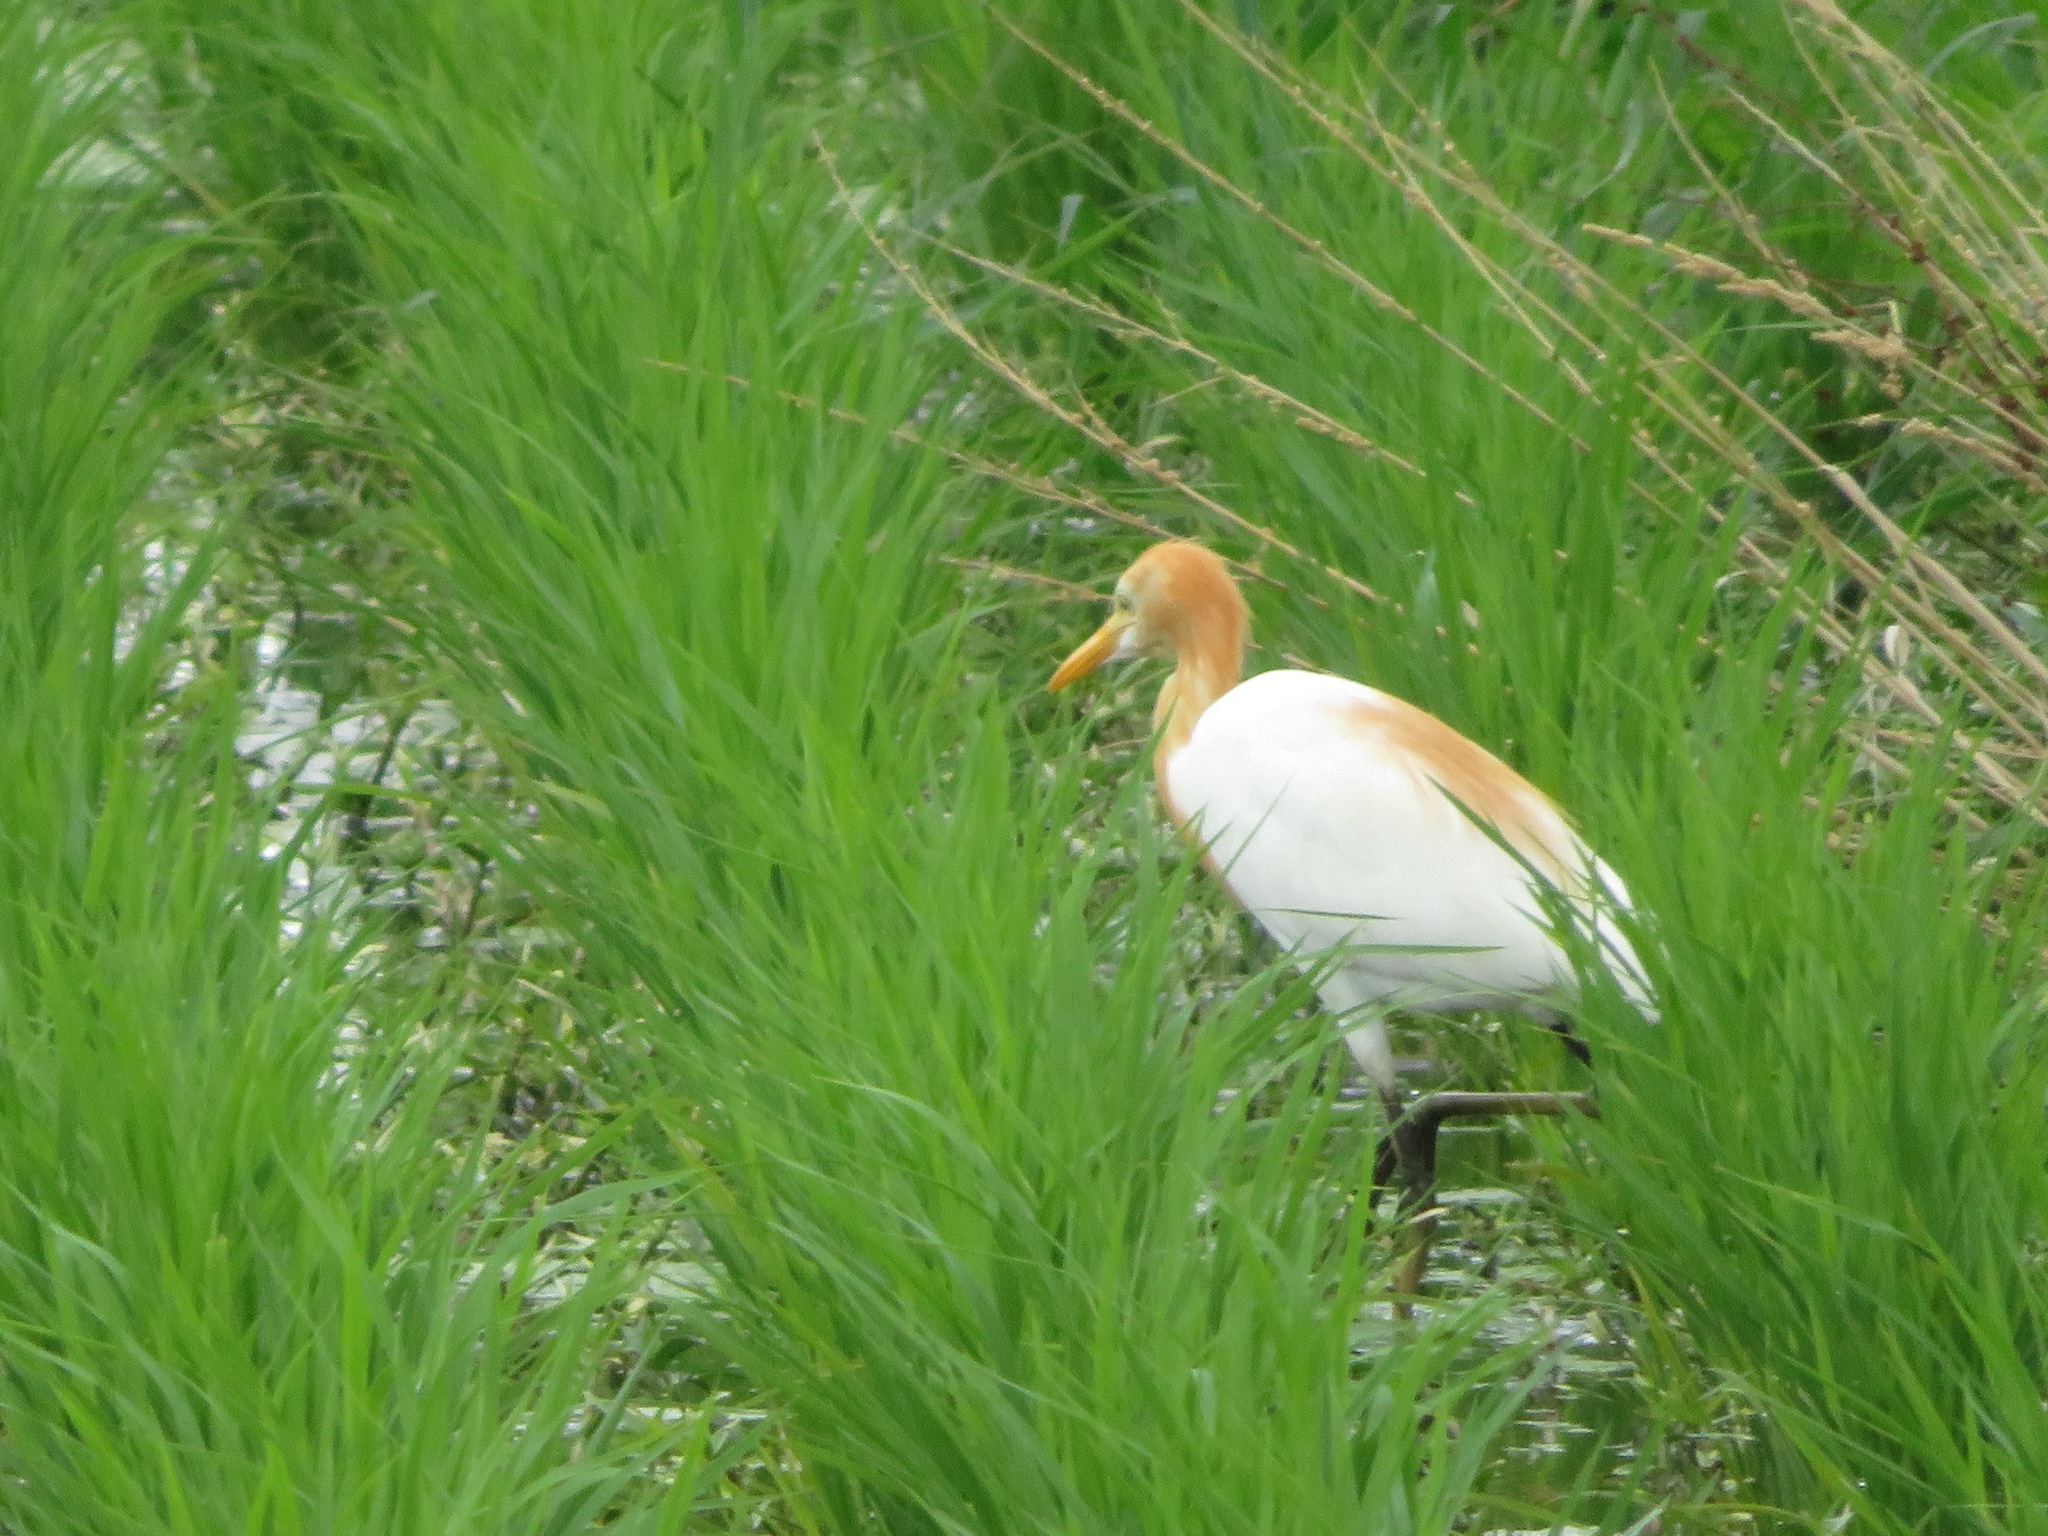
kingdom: Animalia
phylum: Chordata
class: Aves
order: Pelecaniformes
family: Ardeidae
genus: Bubulcus
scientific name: Bubulcus coromandus
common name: Eastern cattle egret
